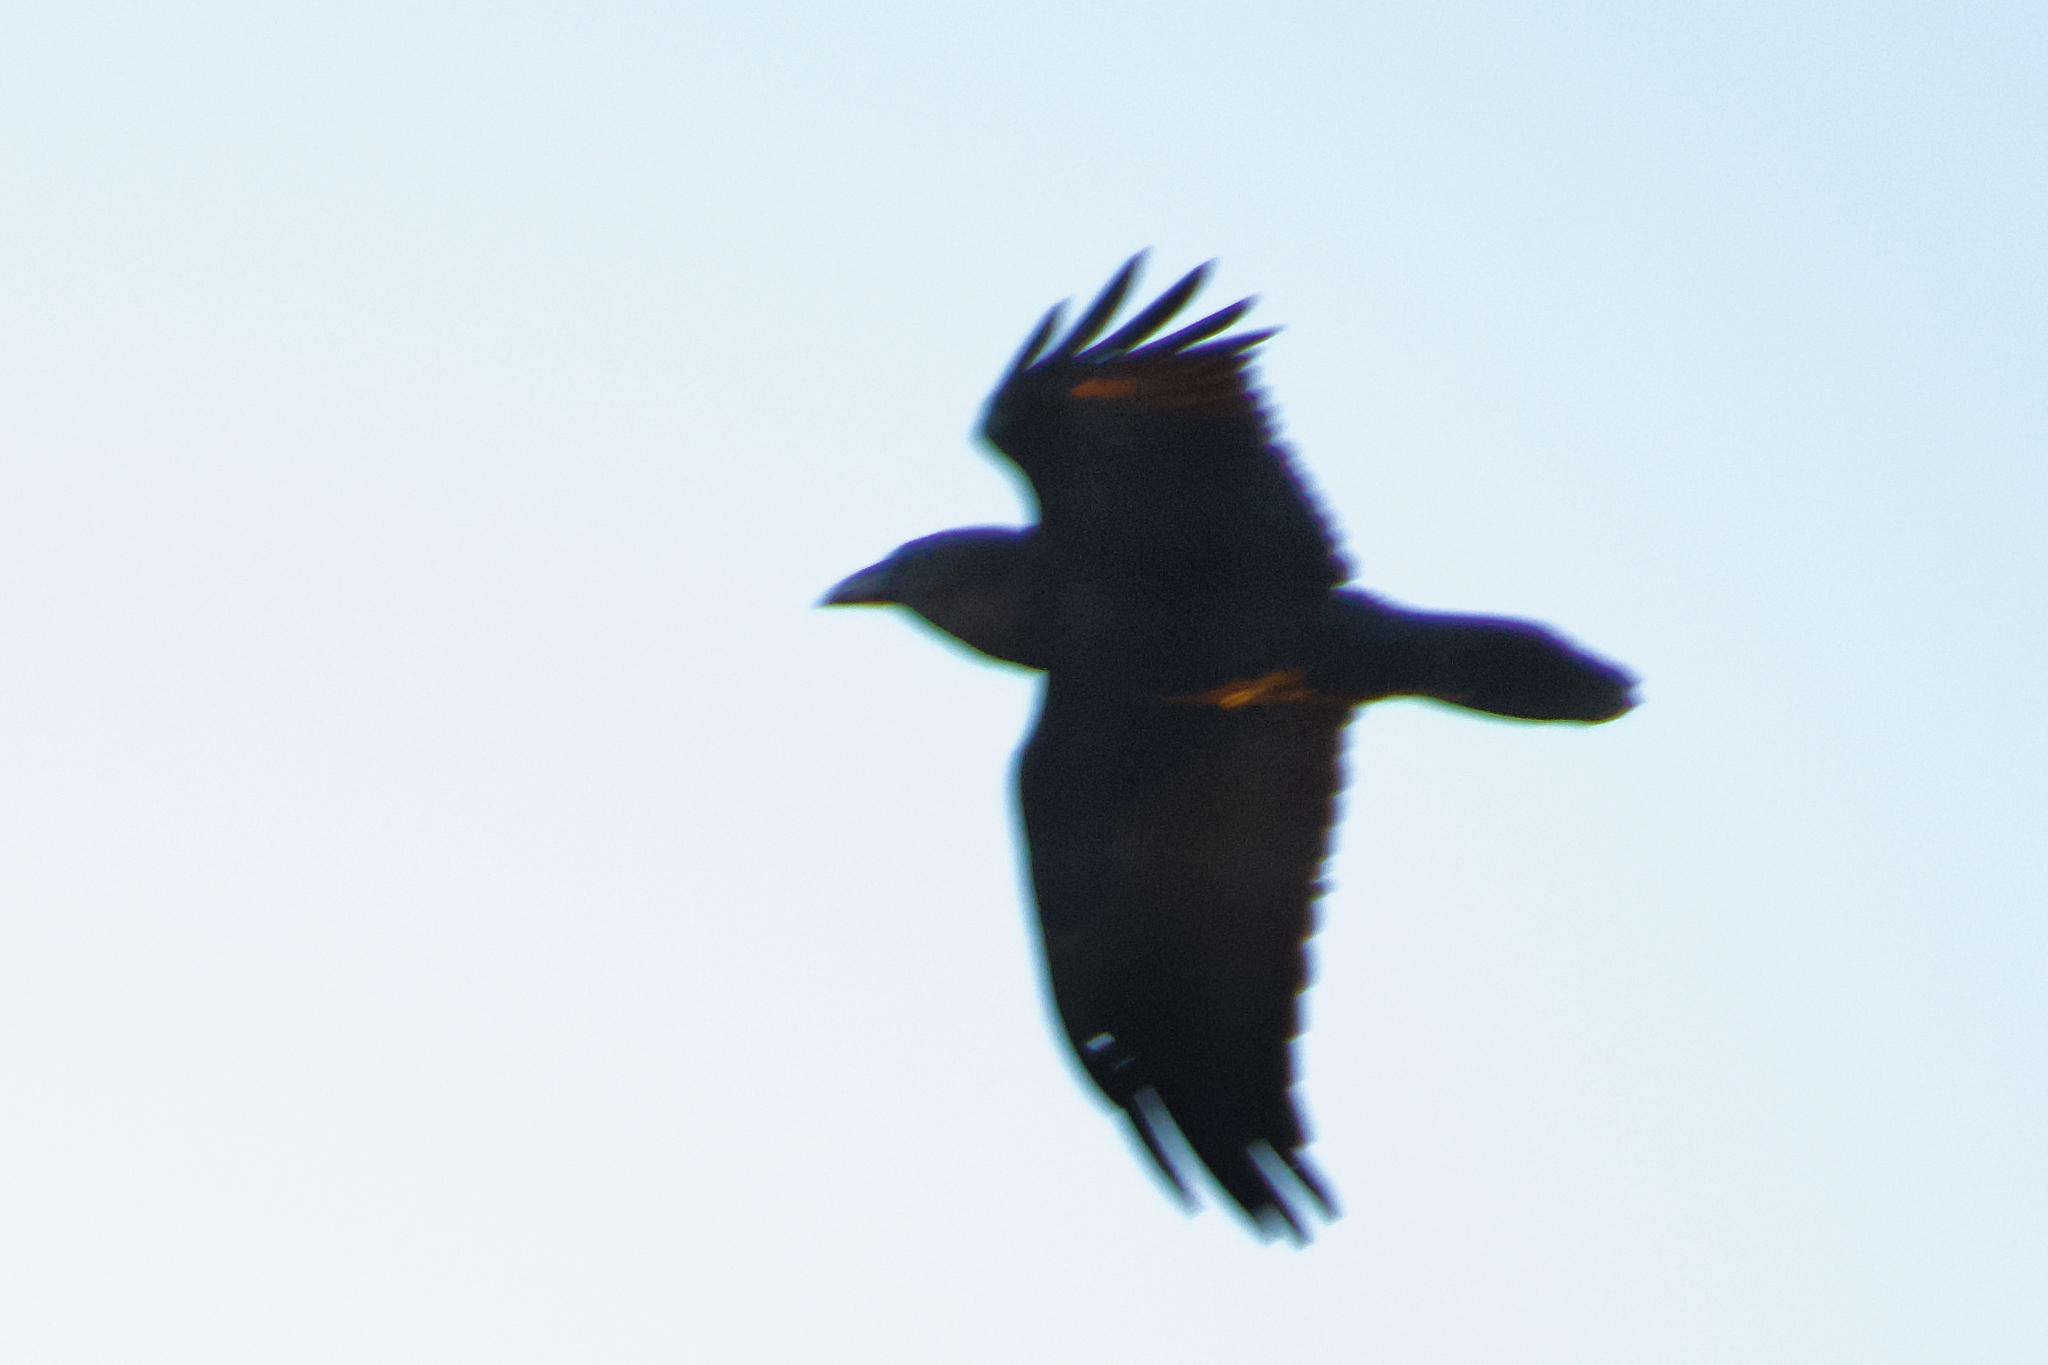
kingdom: Animalia
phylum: Chordata
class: Aves
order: Passeriformes
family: Corvidae
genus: Corvus
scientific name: Corvus corax
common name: Common raven
